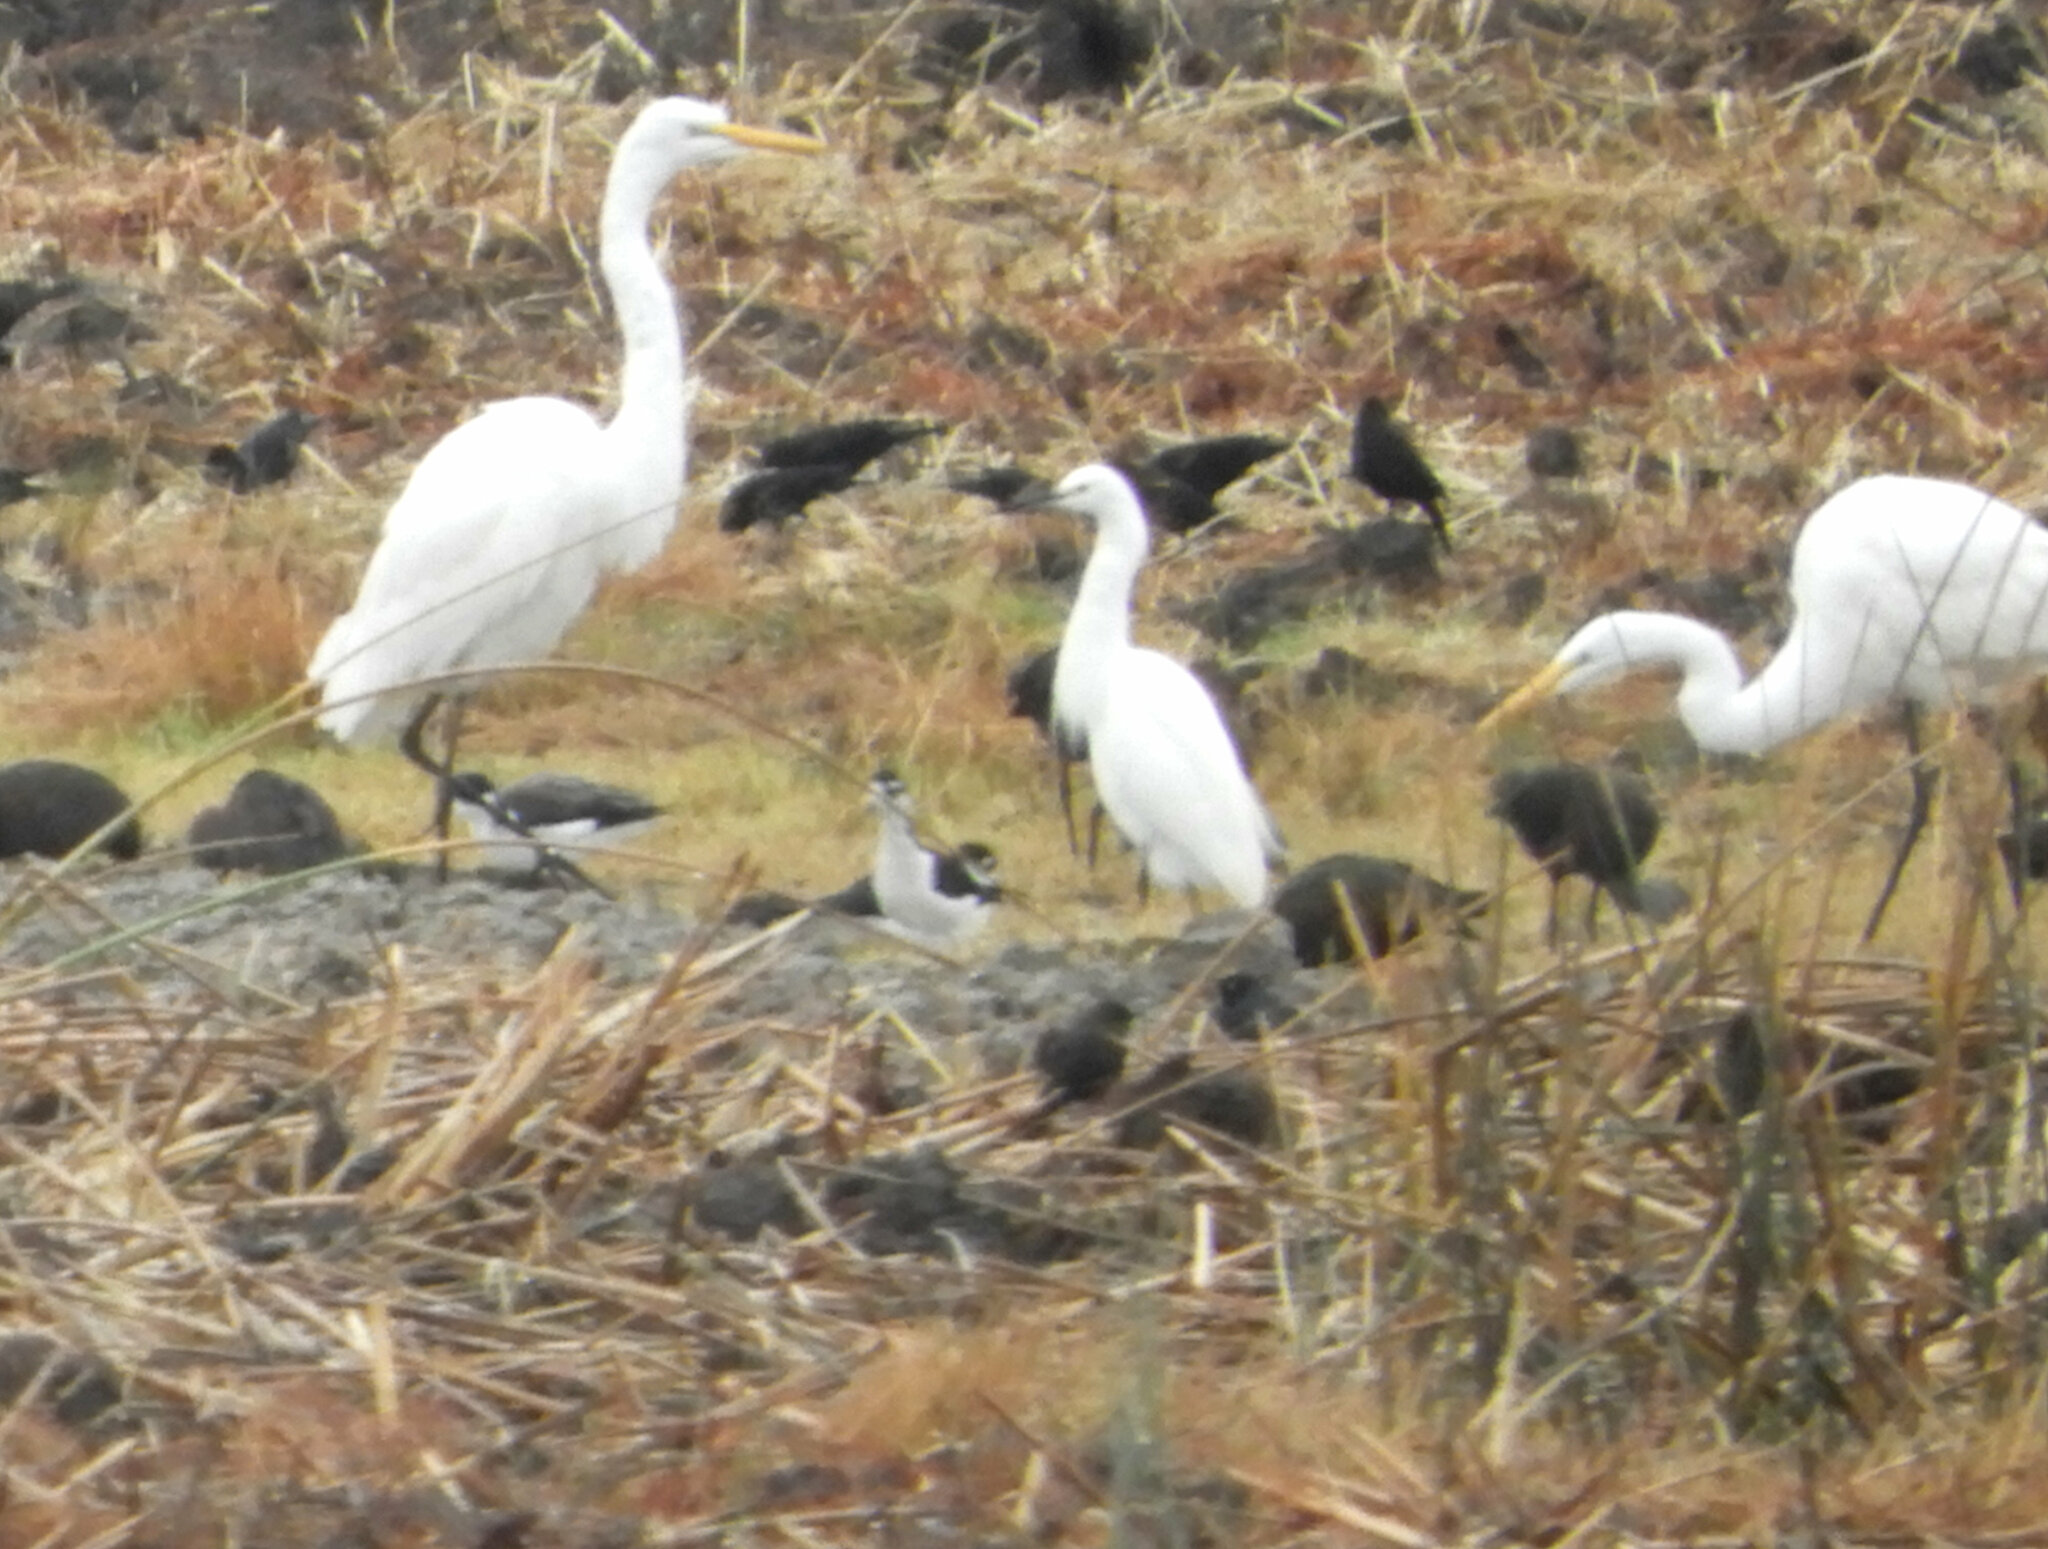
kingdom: Animalia
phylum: Chordata
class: Aves
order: Pelecaniformes
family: Ardeidae
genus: Egretta
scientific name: Egretta thula
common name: Snowy egret
